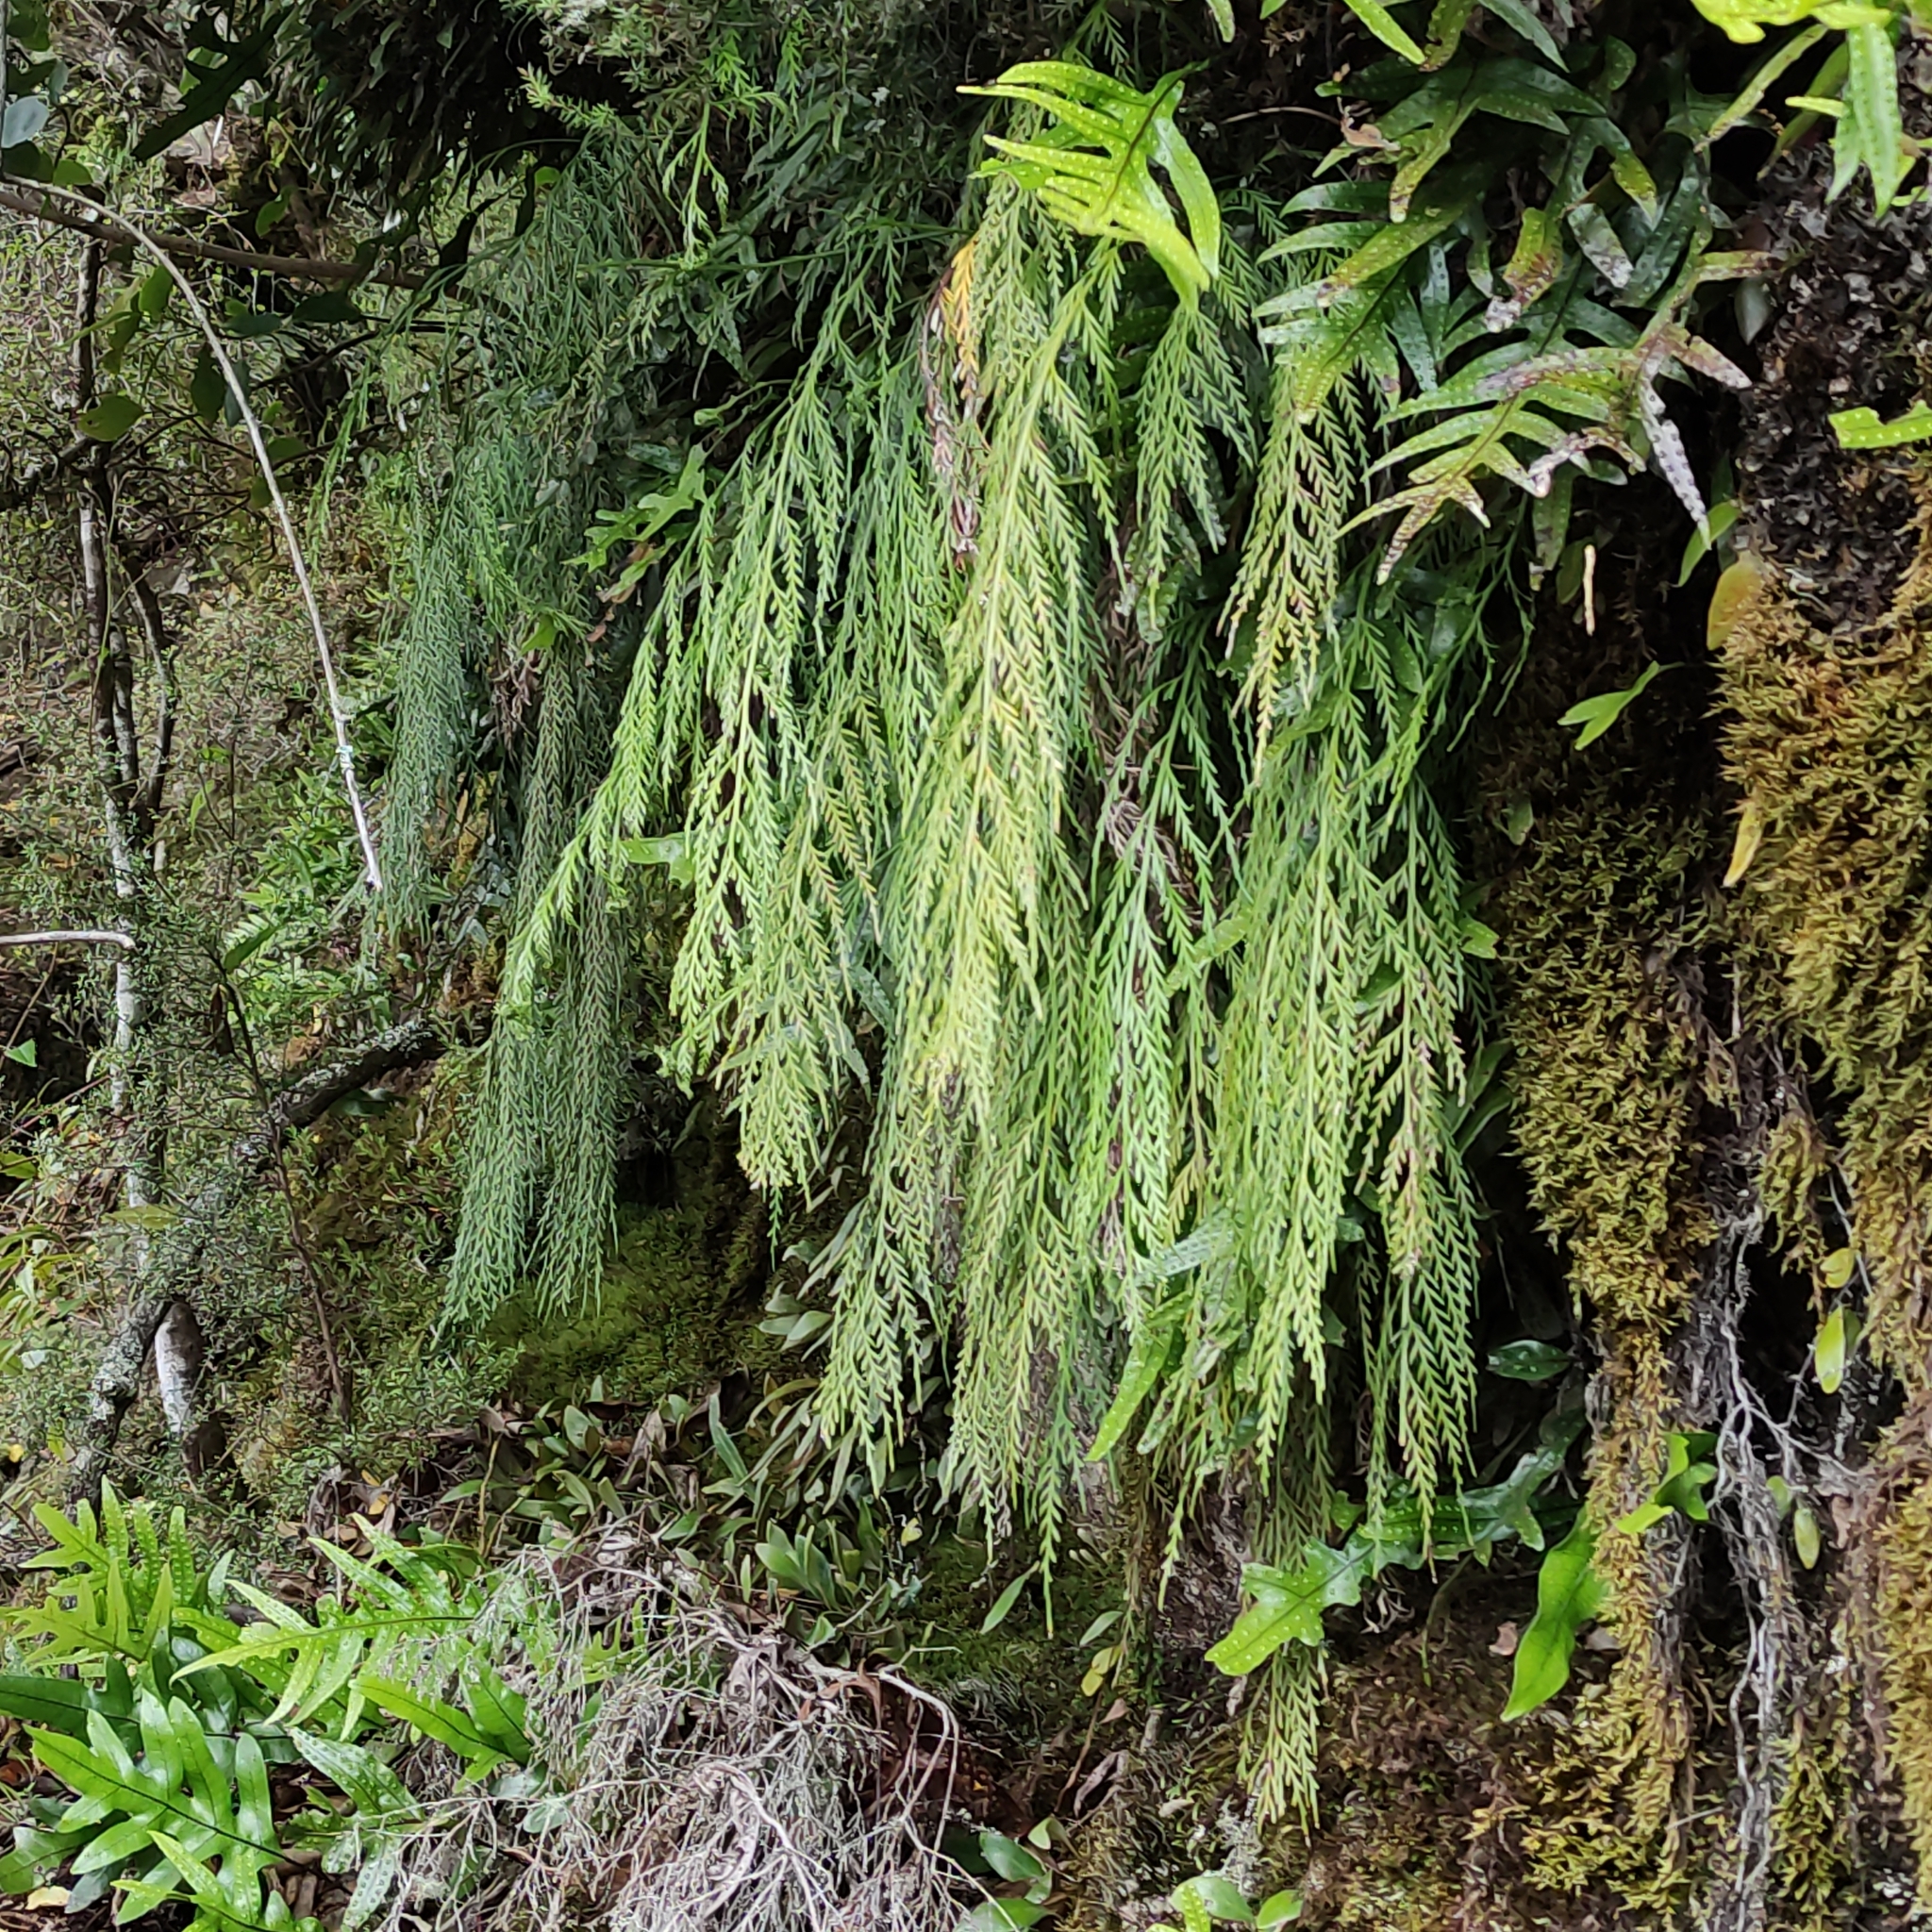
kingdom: Plantae
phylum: Tracheophyta
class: Polypodiopsida
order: Polypodiales
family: Aspleniaceae
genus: Asplenium
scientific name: Asplenium flaccidum
